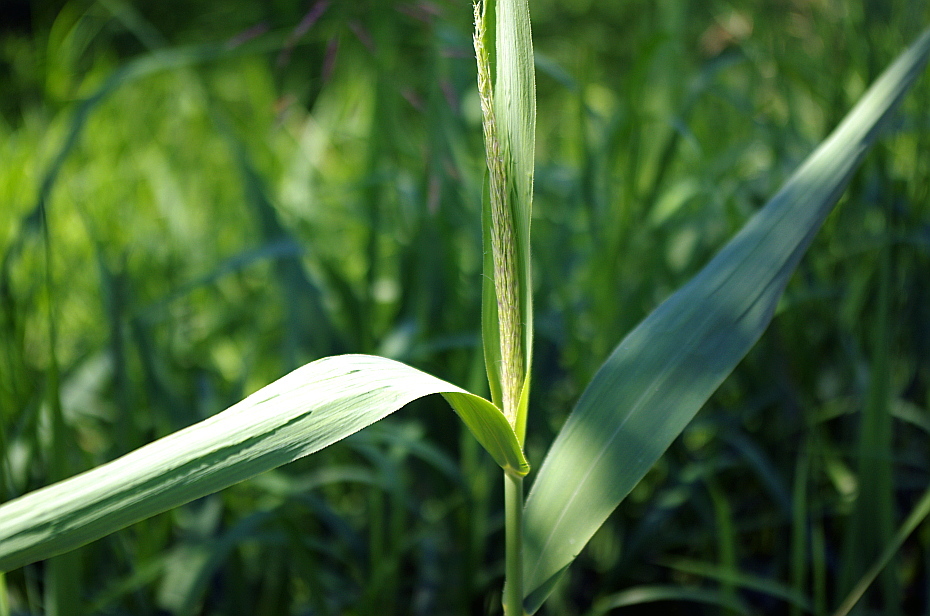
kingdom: Plantae
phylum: Tracheophyta
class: Liliopsida
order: Poales
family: Poaceae
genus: Phragmites
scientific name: Phragmites australis
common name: Common reed
